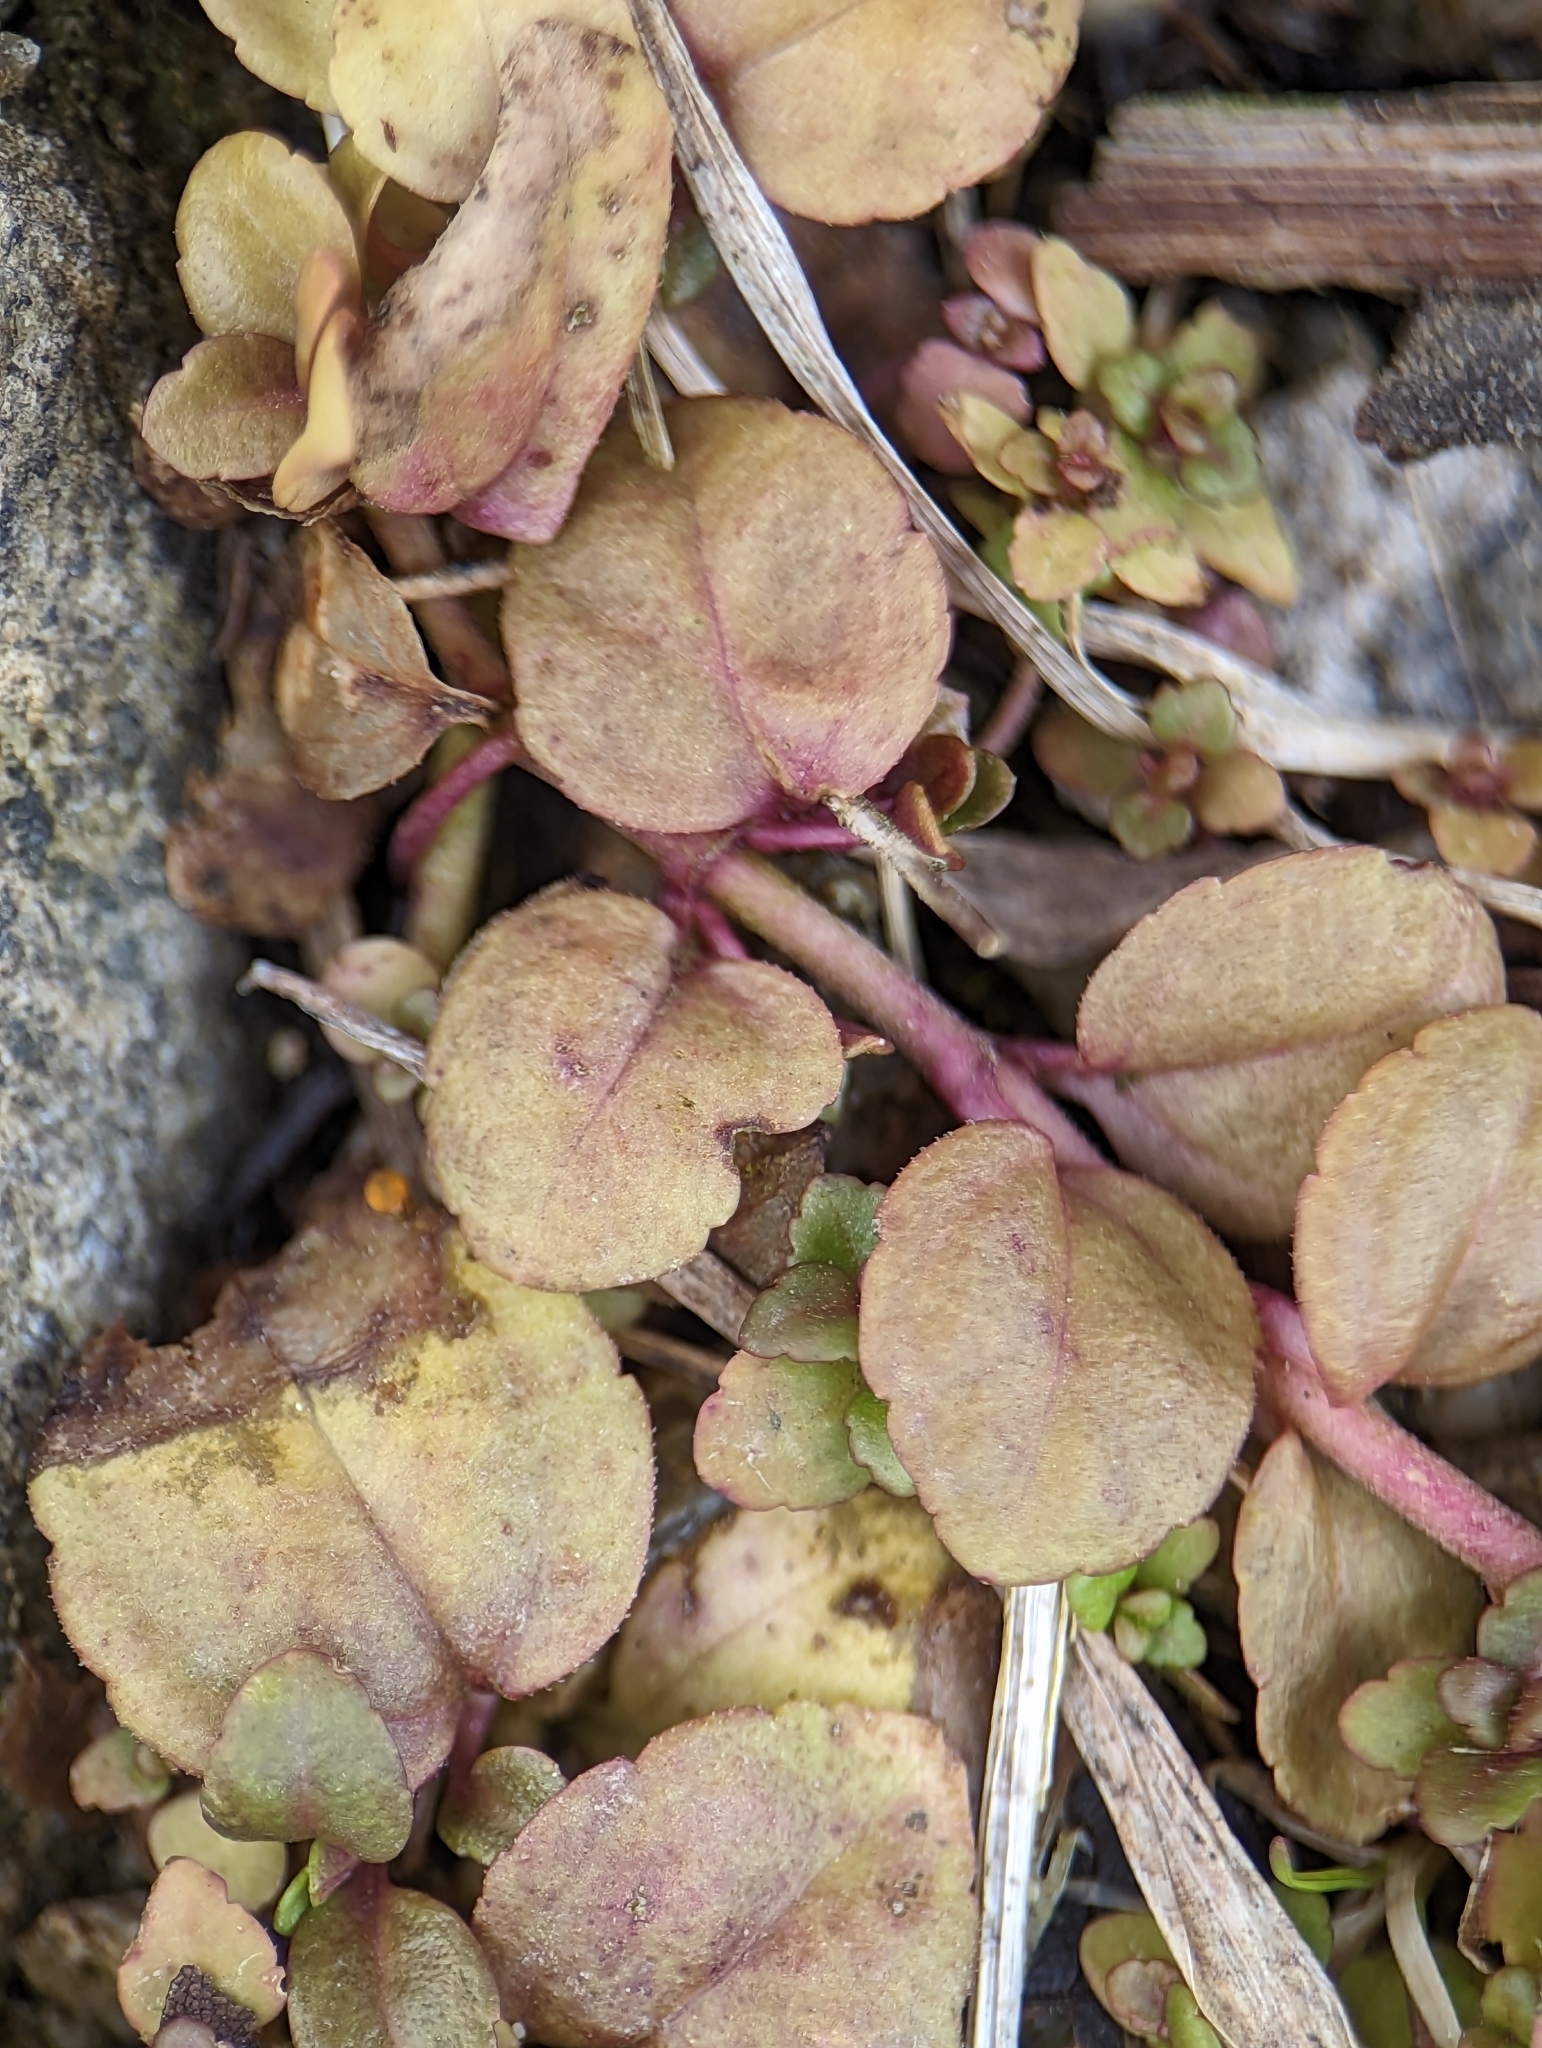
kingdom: Plantae
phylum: Tracheophyta
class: Magnoliopsida
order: Lamiales
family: Plantaginaceae
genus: Veronica
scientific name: Veronica serpyllifolia
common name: Thyme-leaved speedwell
